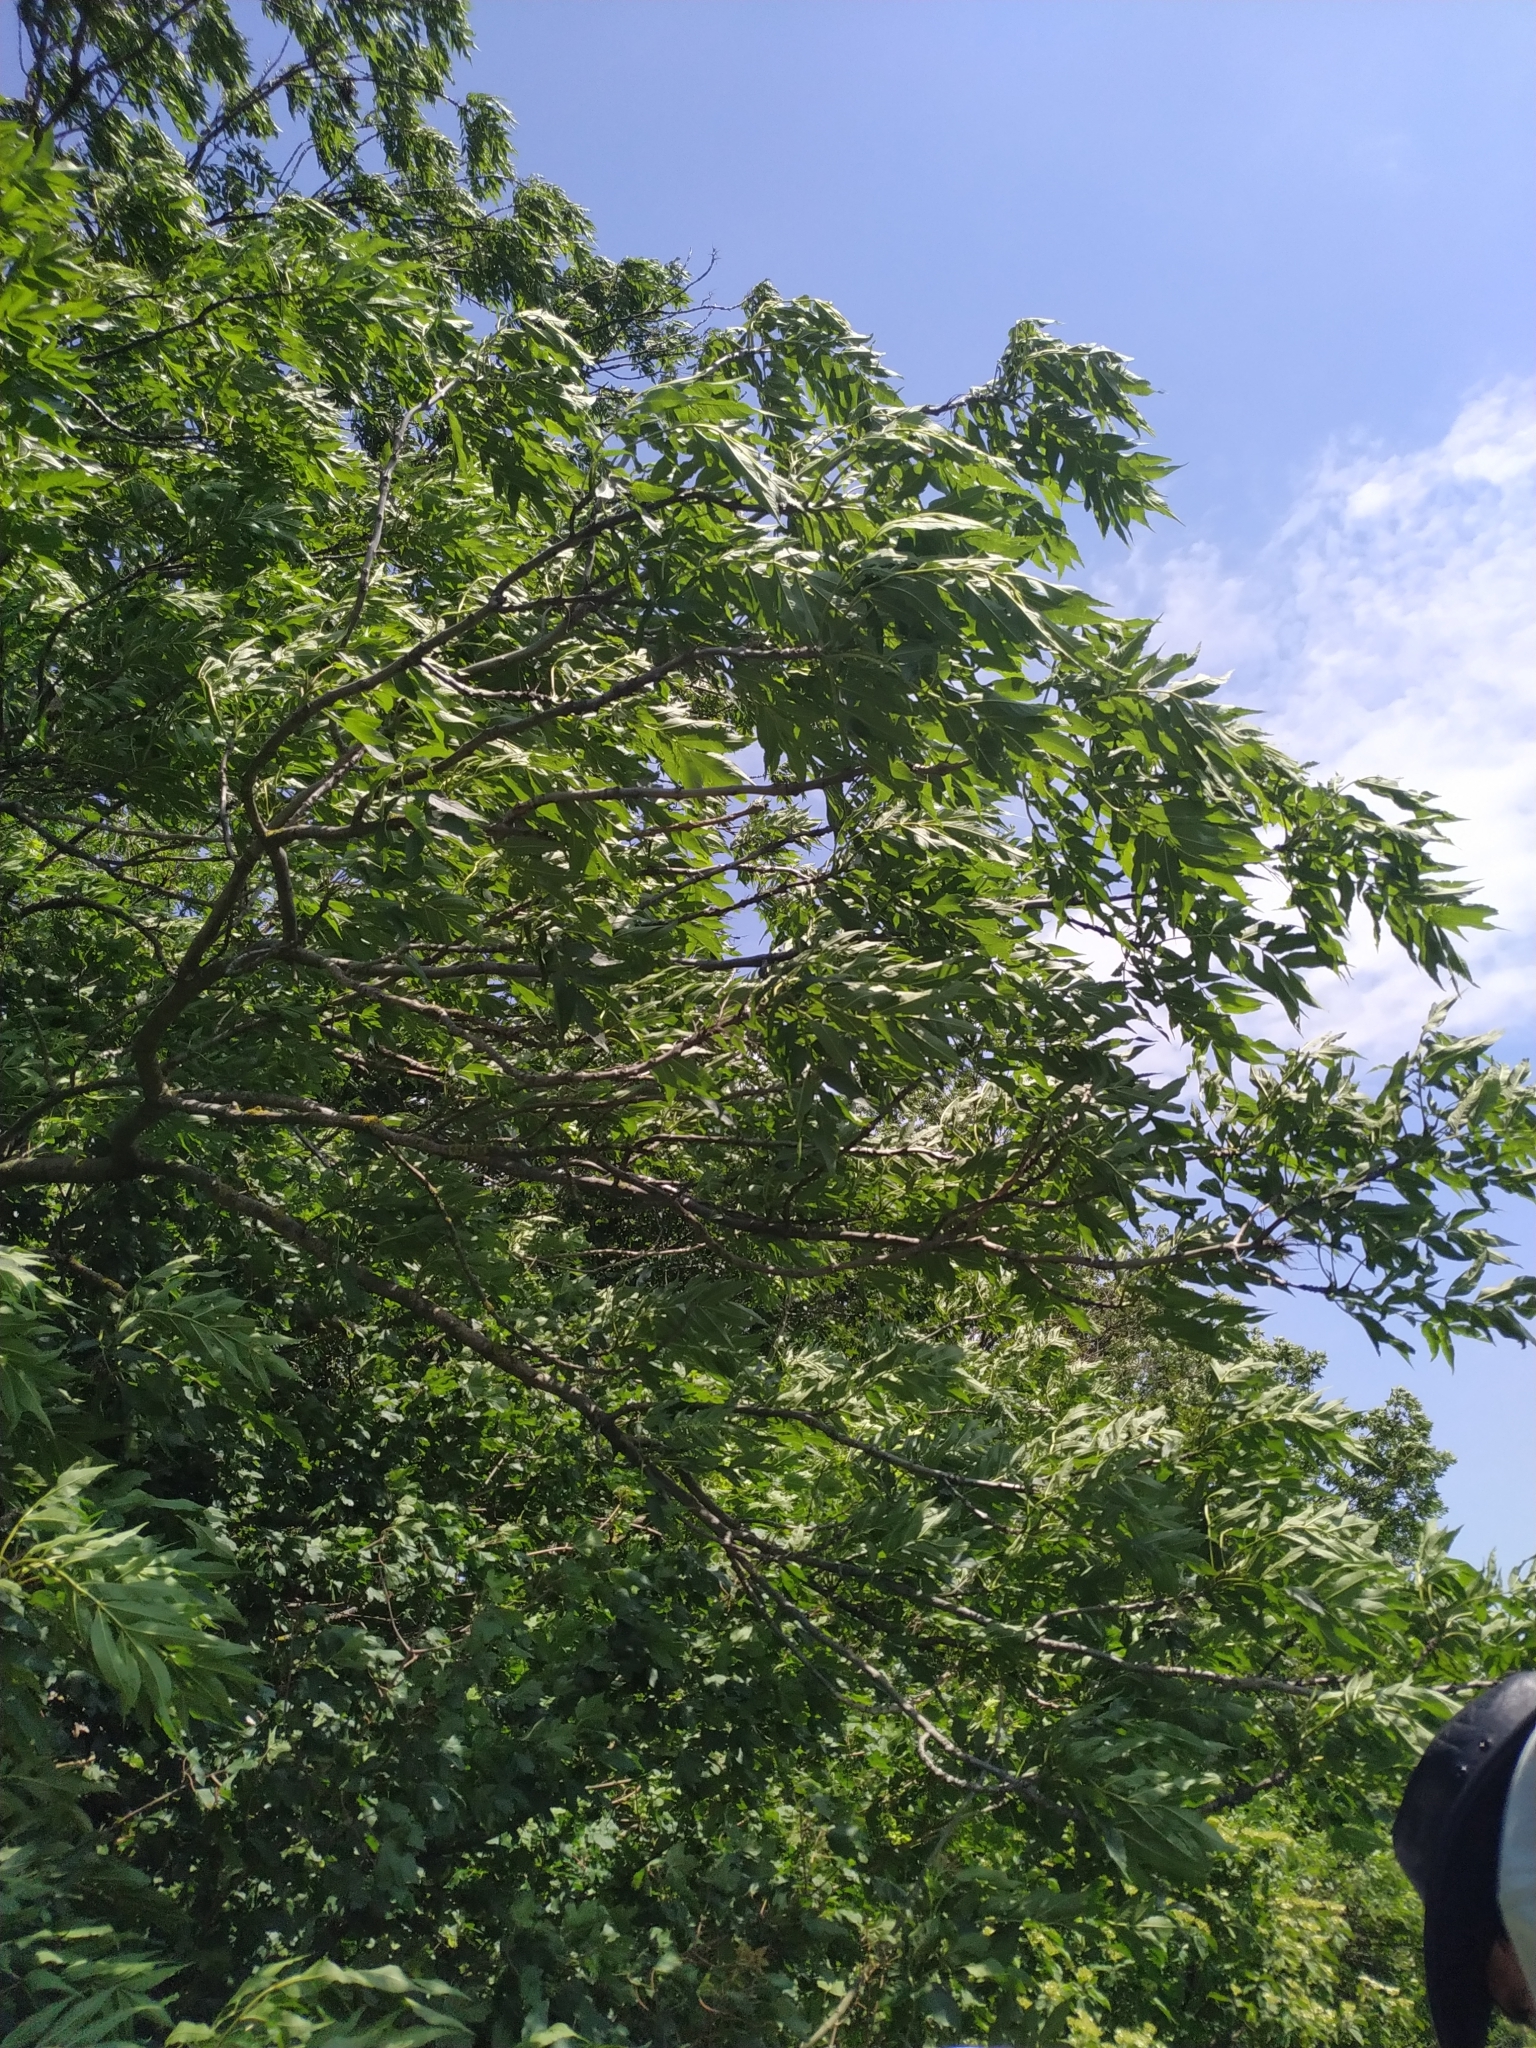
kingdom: Plantae
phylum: Tracheophyta
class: Magnoliopsida
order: Lamiales
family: Oleaceae
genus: Fraxinus
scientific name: Fraxinus excelsior
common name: European ash
